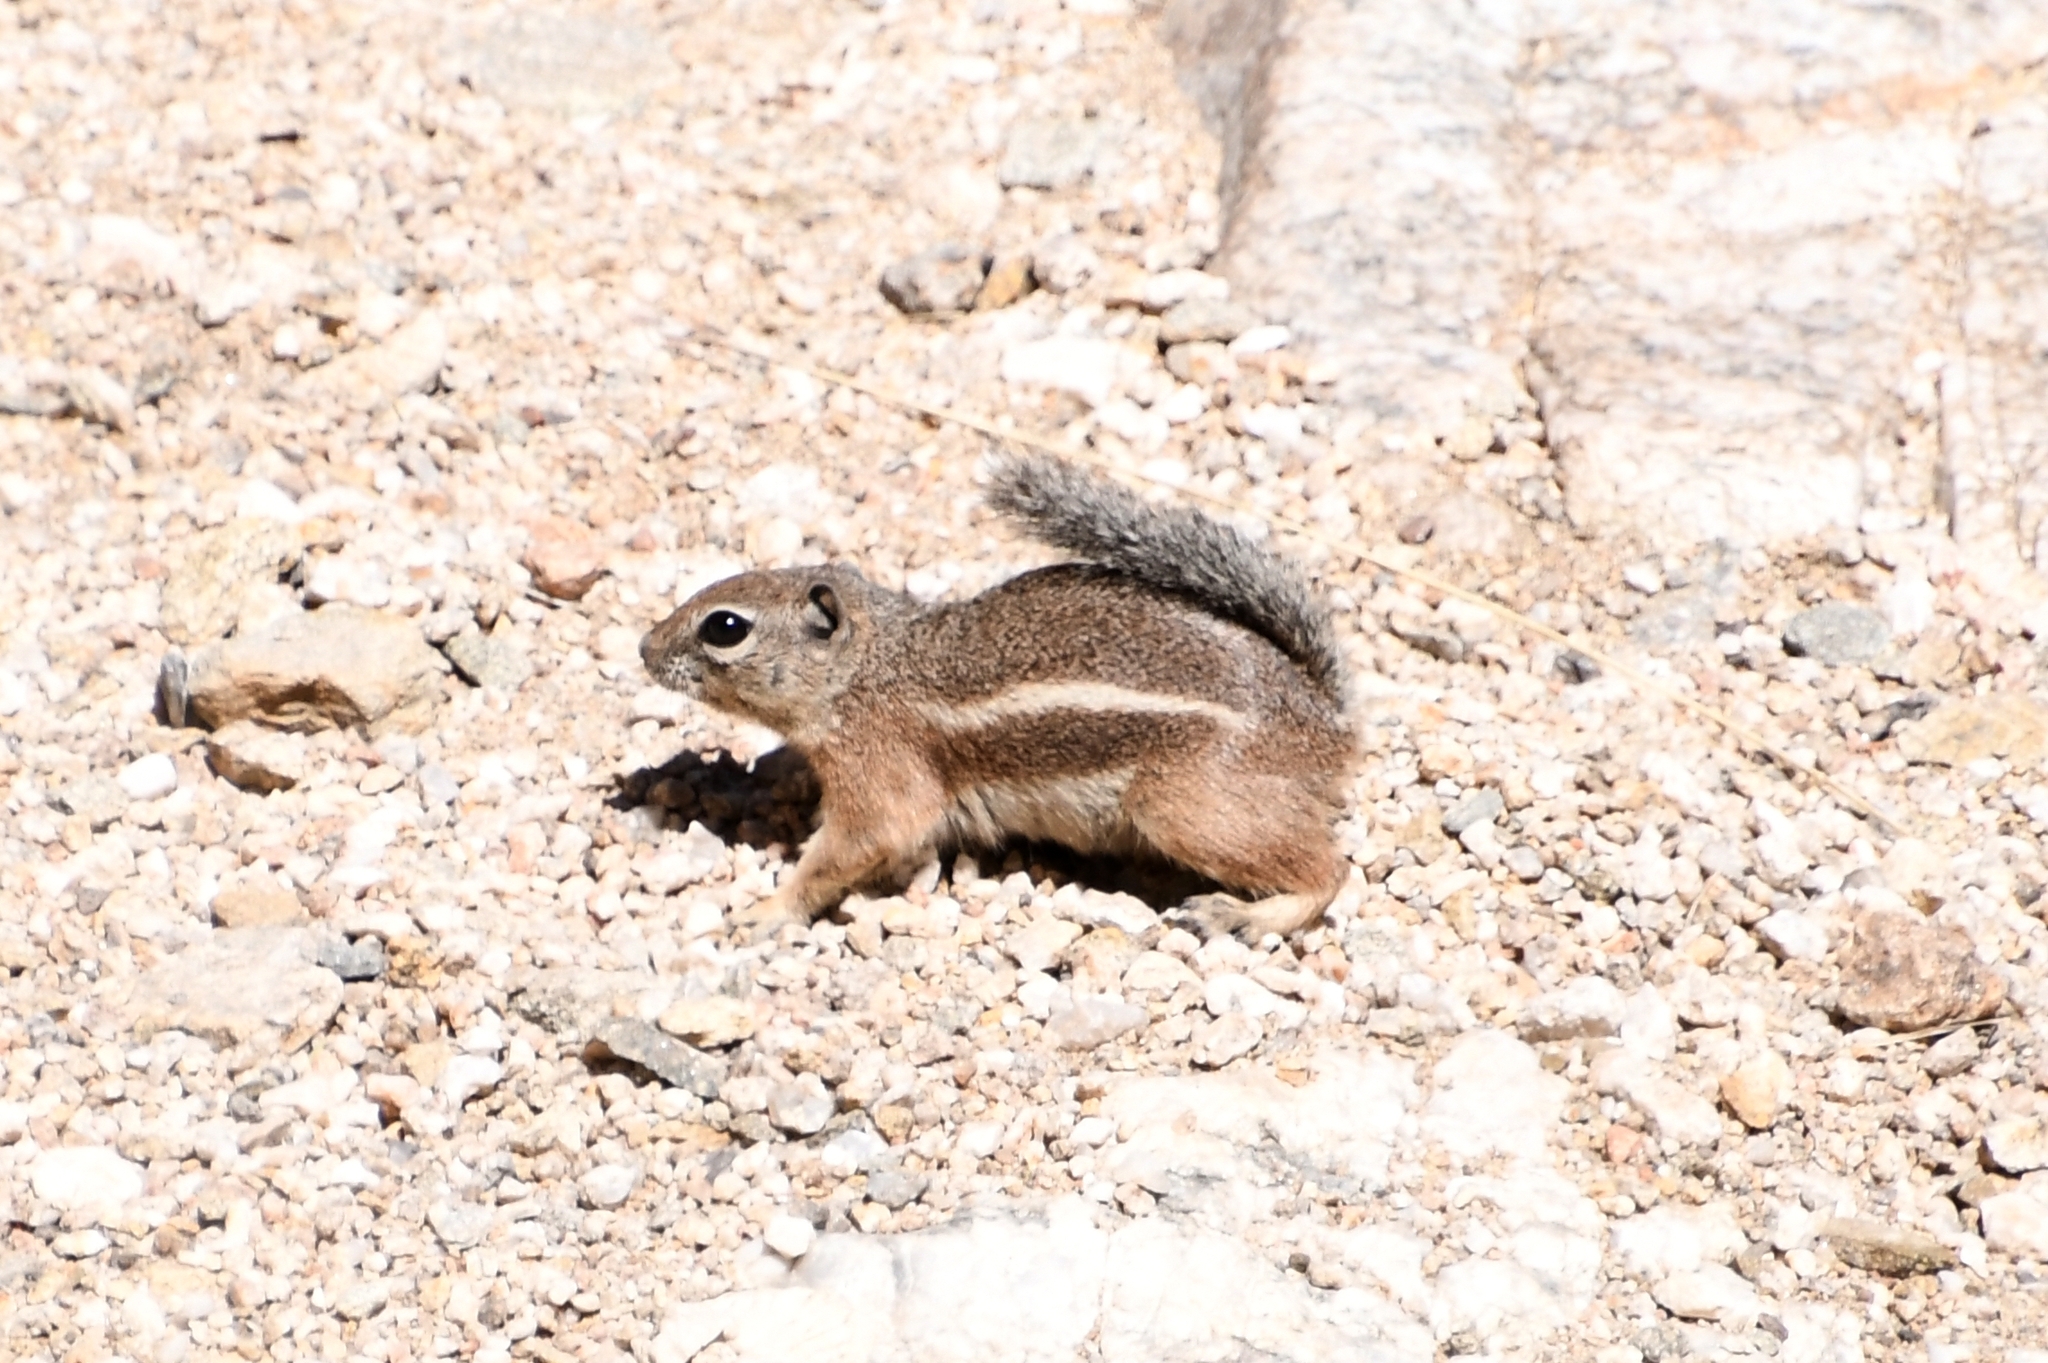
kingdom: Animalia
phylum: Chordata
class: Mammalia
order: Rodentia
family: Sciuridae
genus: Ammospermophilus
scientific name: Ammospermophilus harrisii
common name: Harris's antelope squirrel
